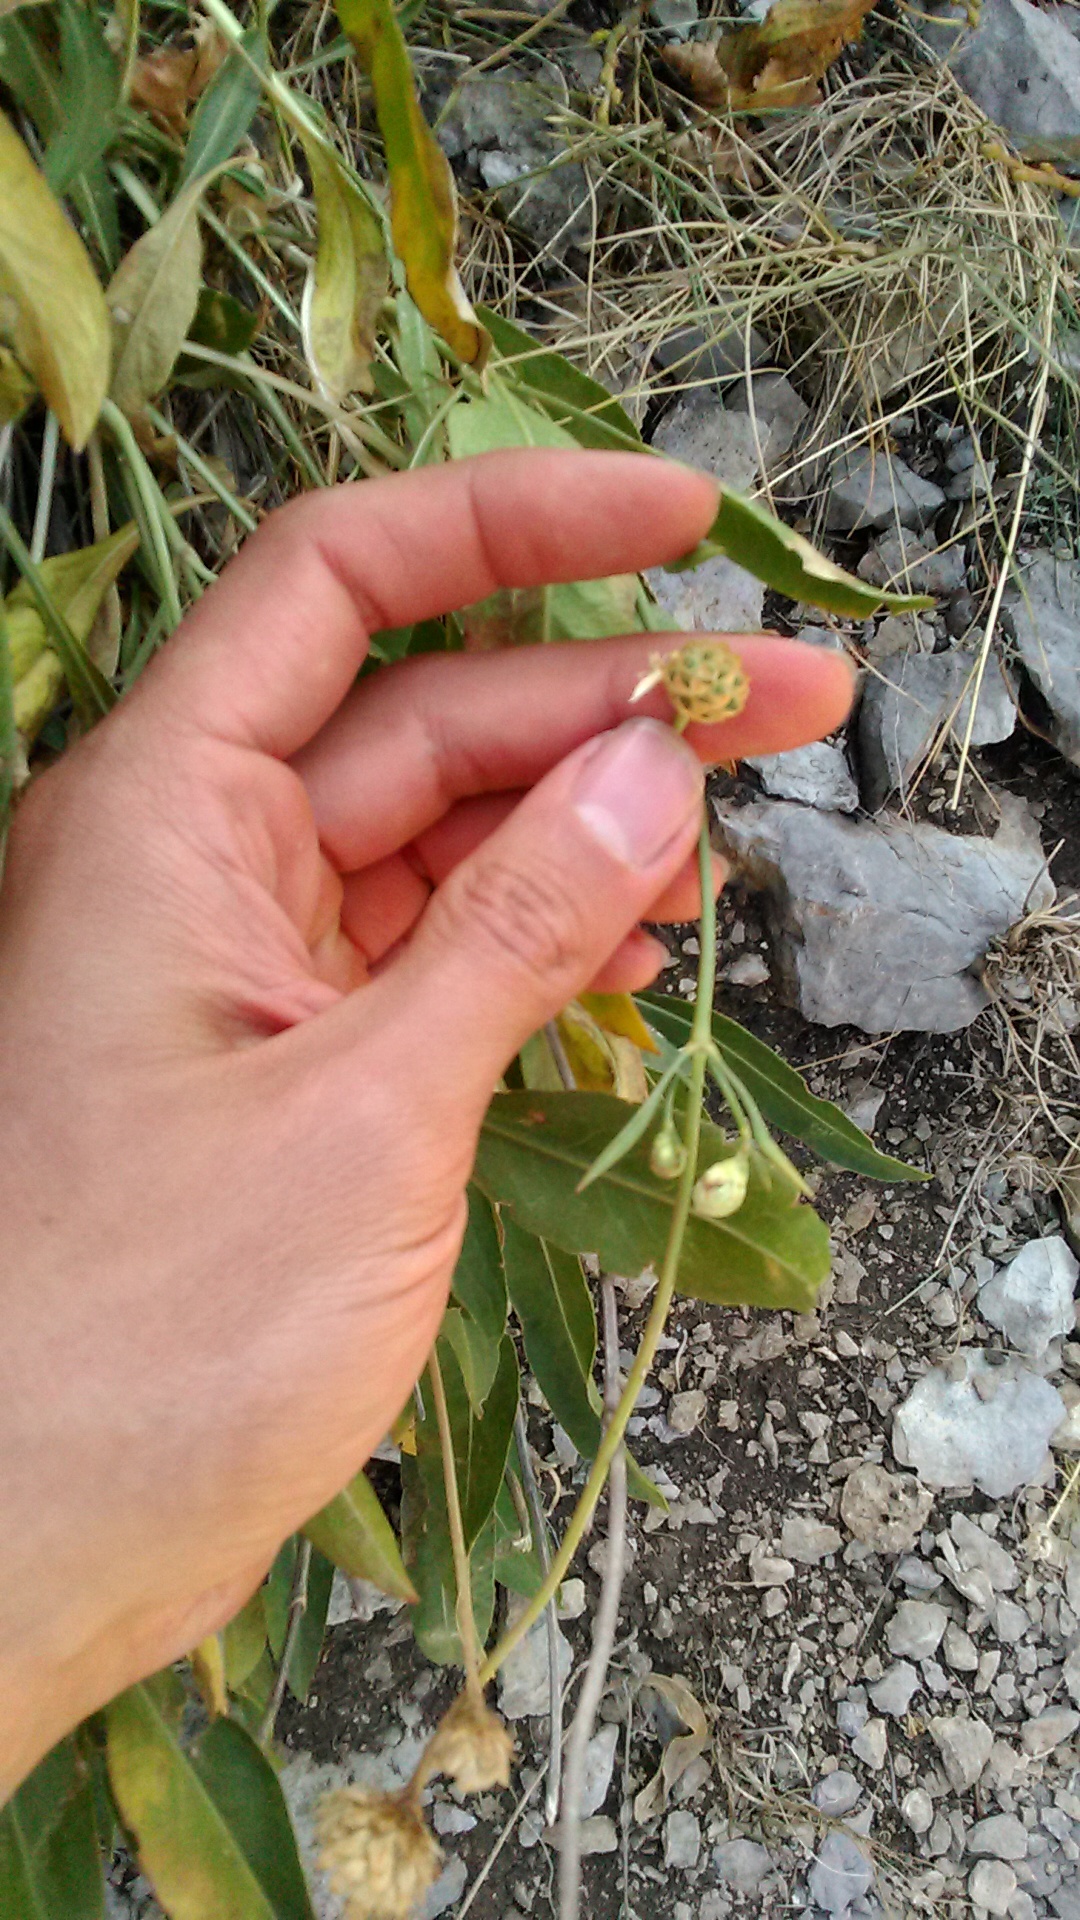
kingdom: Plantae
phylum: Tracheophyta
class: Magnoliopsida
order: Dipsacales
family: Caprifoliaceae
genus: Cephalaria
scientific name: Cephalaria coriacea
